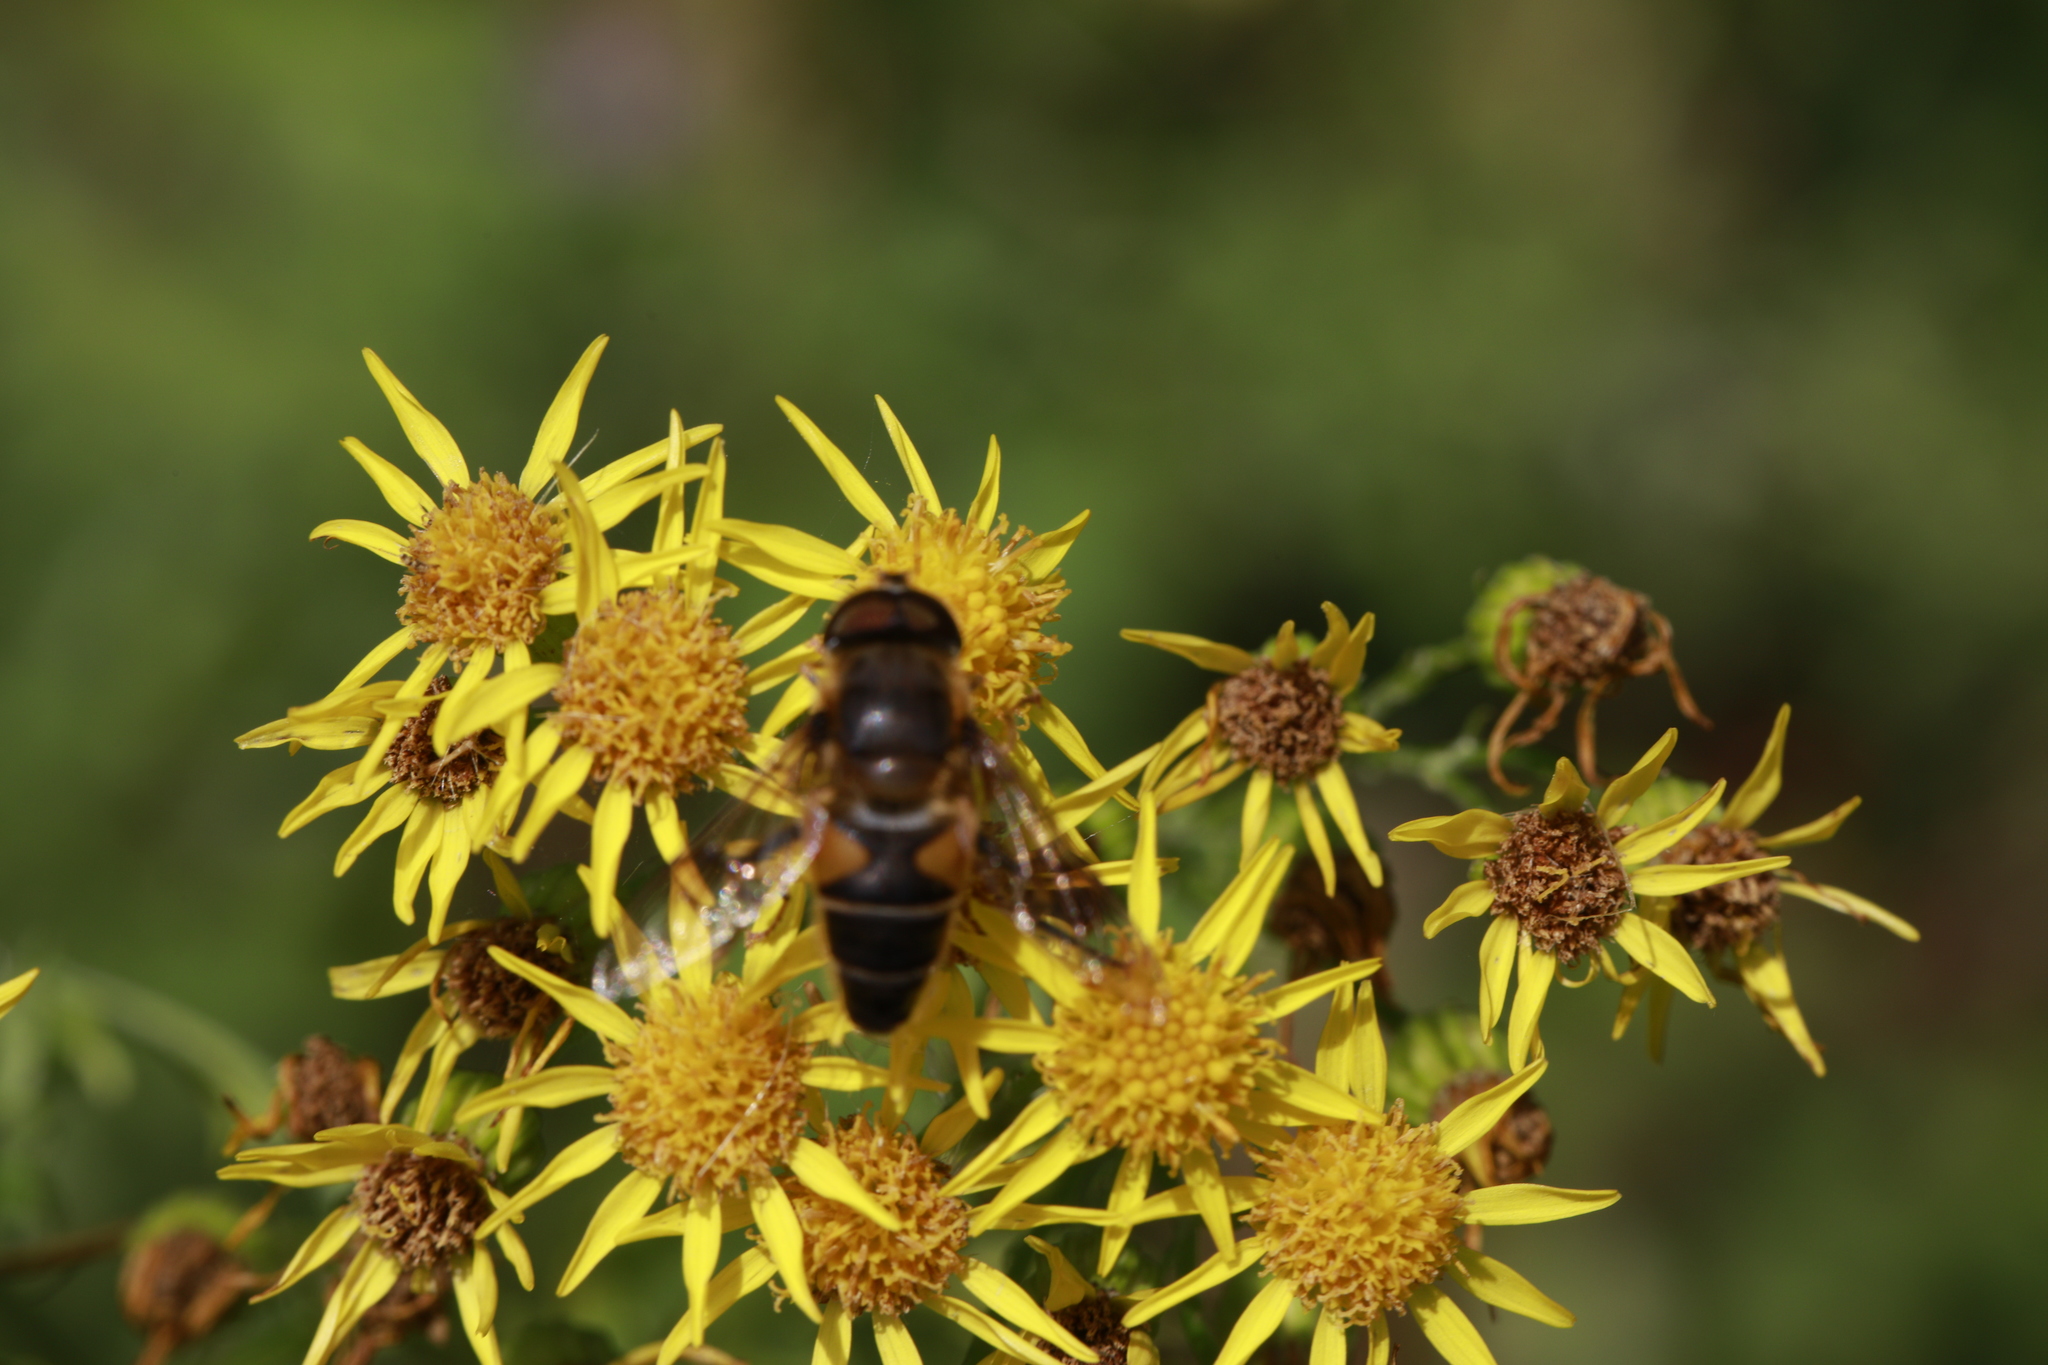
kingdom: Animalia
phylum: Arthropoda
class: Insecta
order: Diptera
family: Syrphidae
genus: Eristalis
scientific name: Eristalis pertinax
